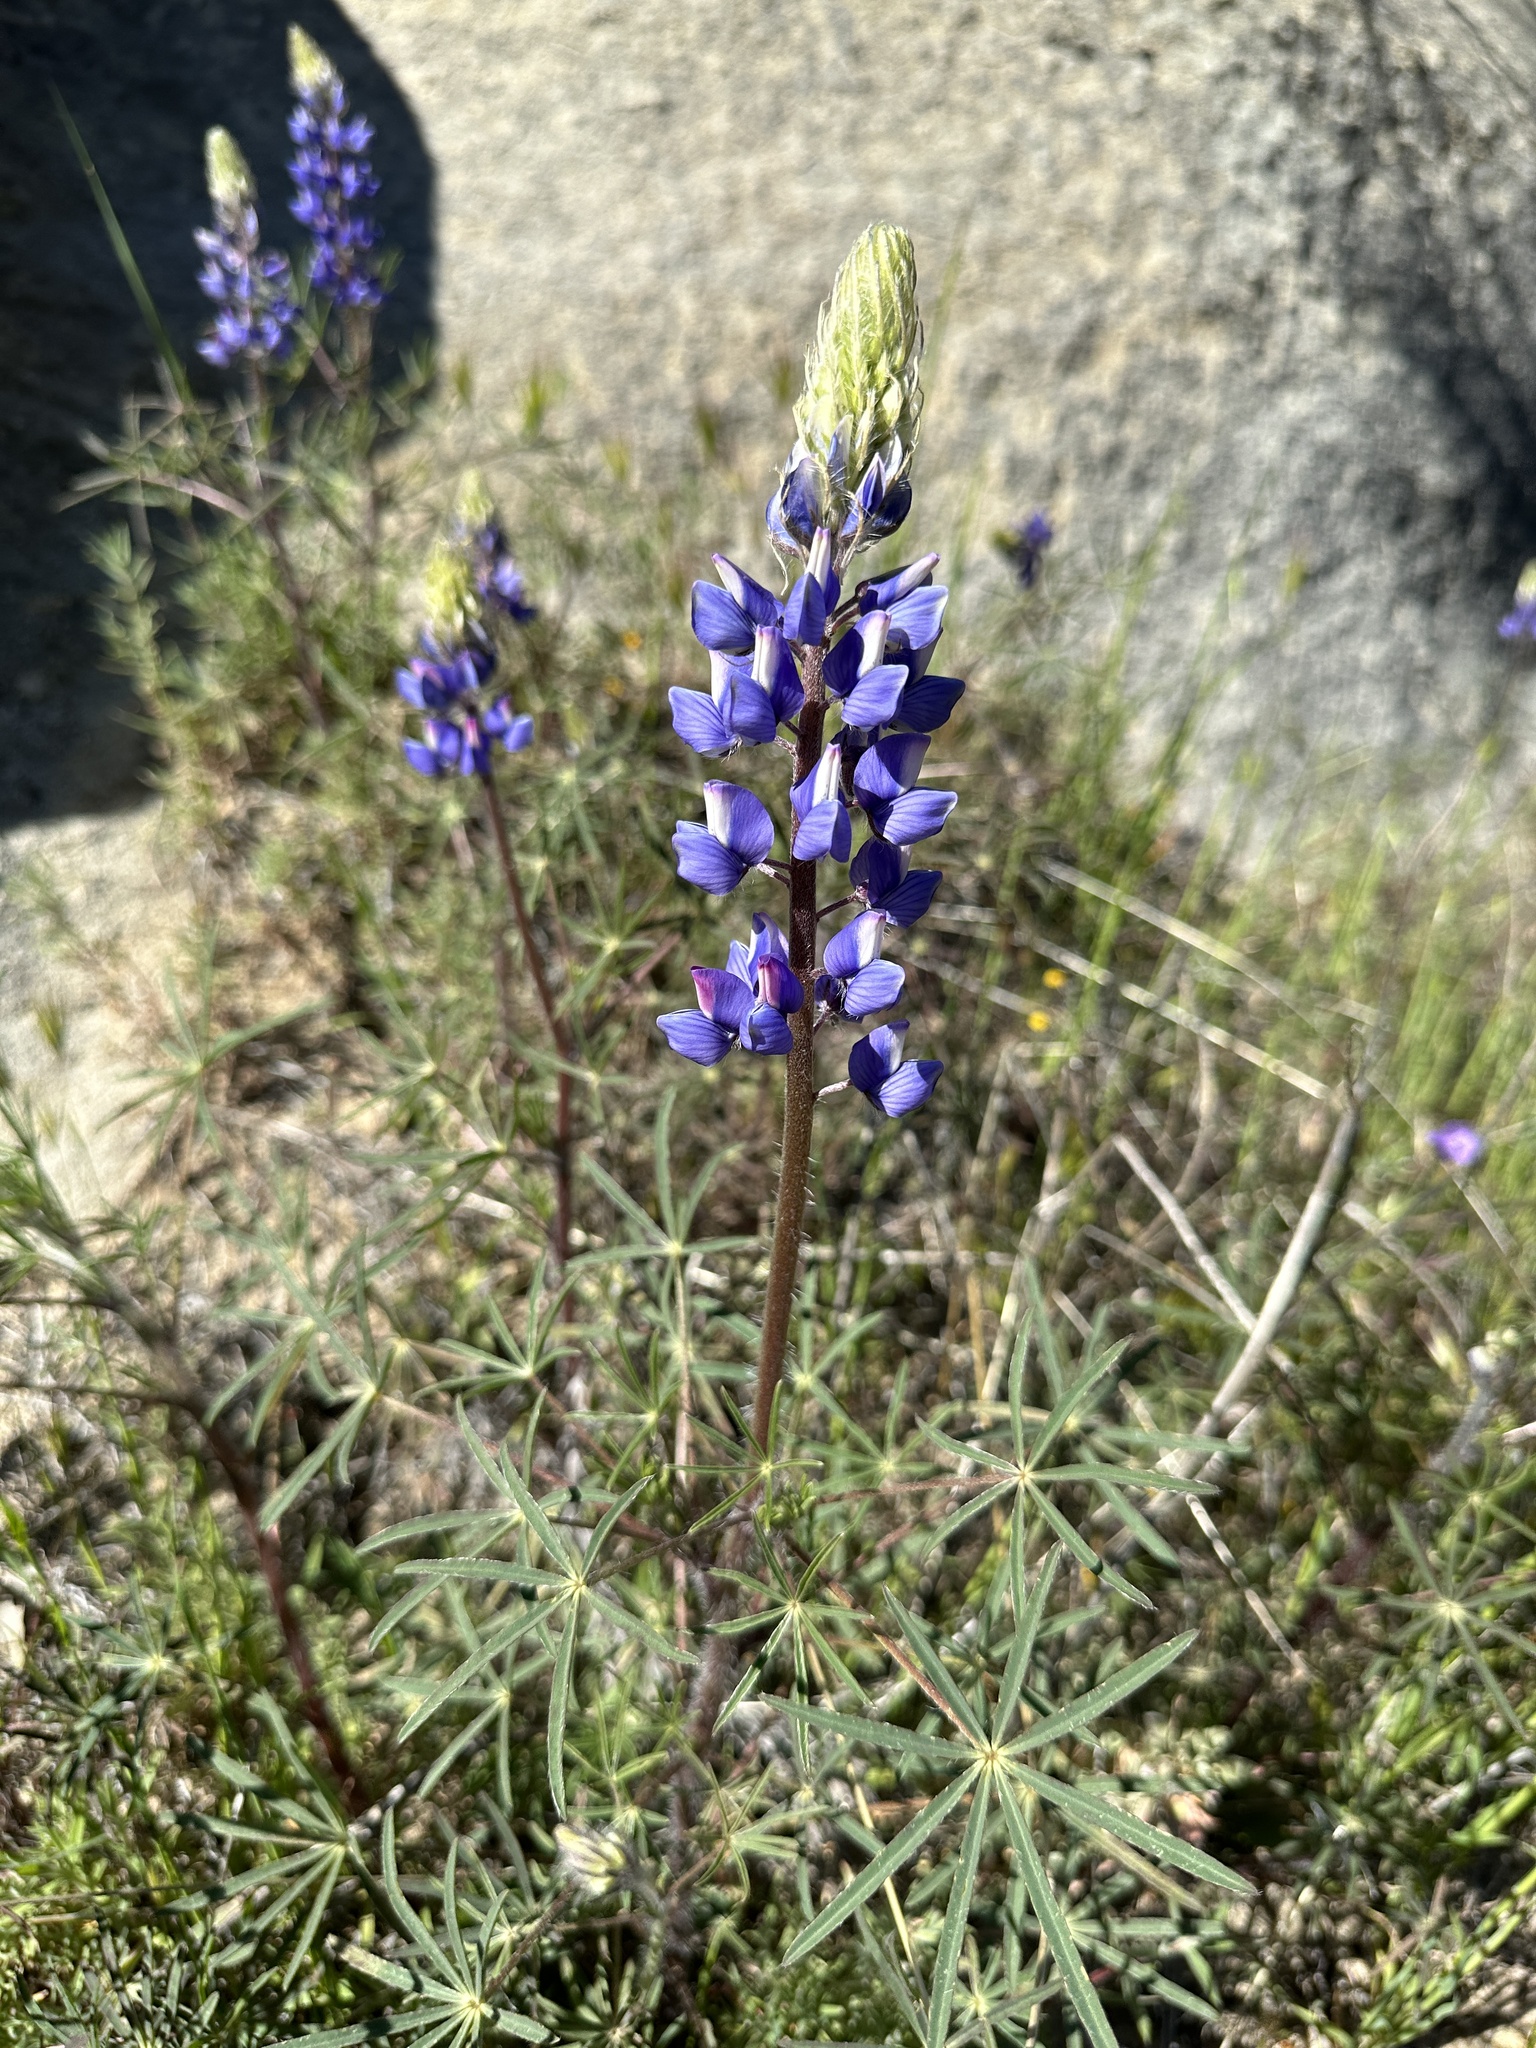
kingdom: Plantae
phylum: Tracheophyta
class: Magnoliopsida
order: Fabales
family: Fabaceae
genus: Lupinus
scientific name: Lupinus benthamii
